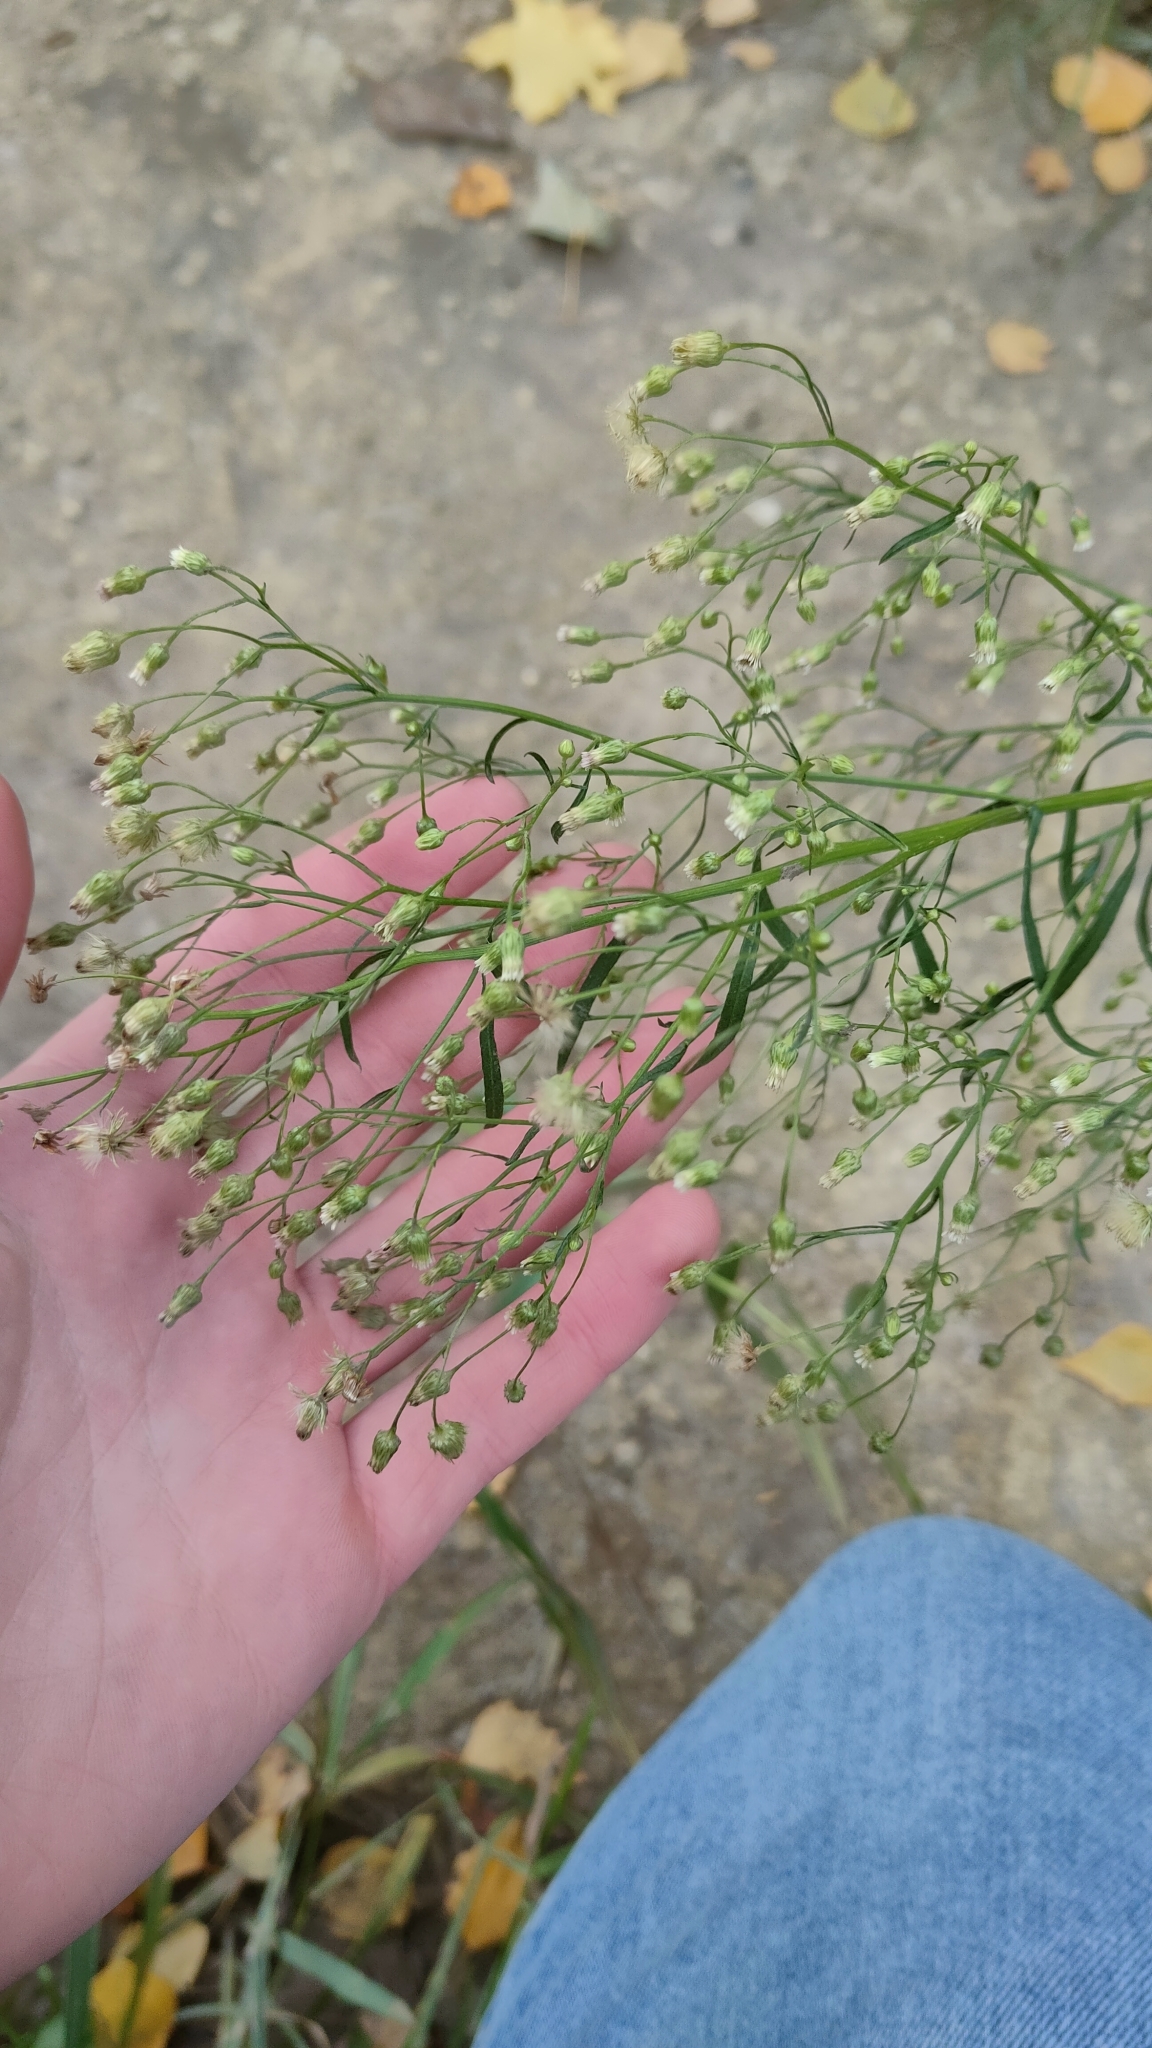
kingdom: Plantae
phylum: Tracheophyta
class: Magnoliopsida
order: Asterales
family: Asteraceae
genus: Erigeron
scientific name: Erigeron canadensis
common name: Canadian fleabane
